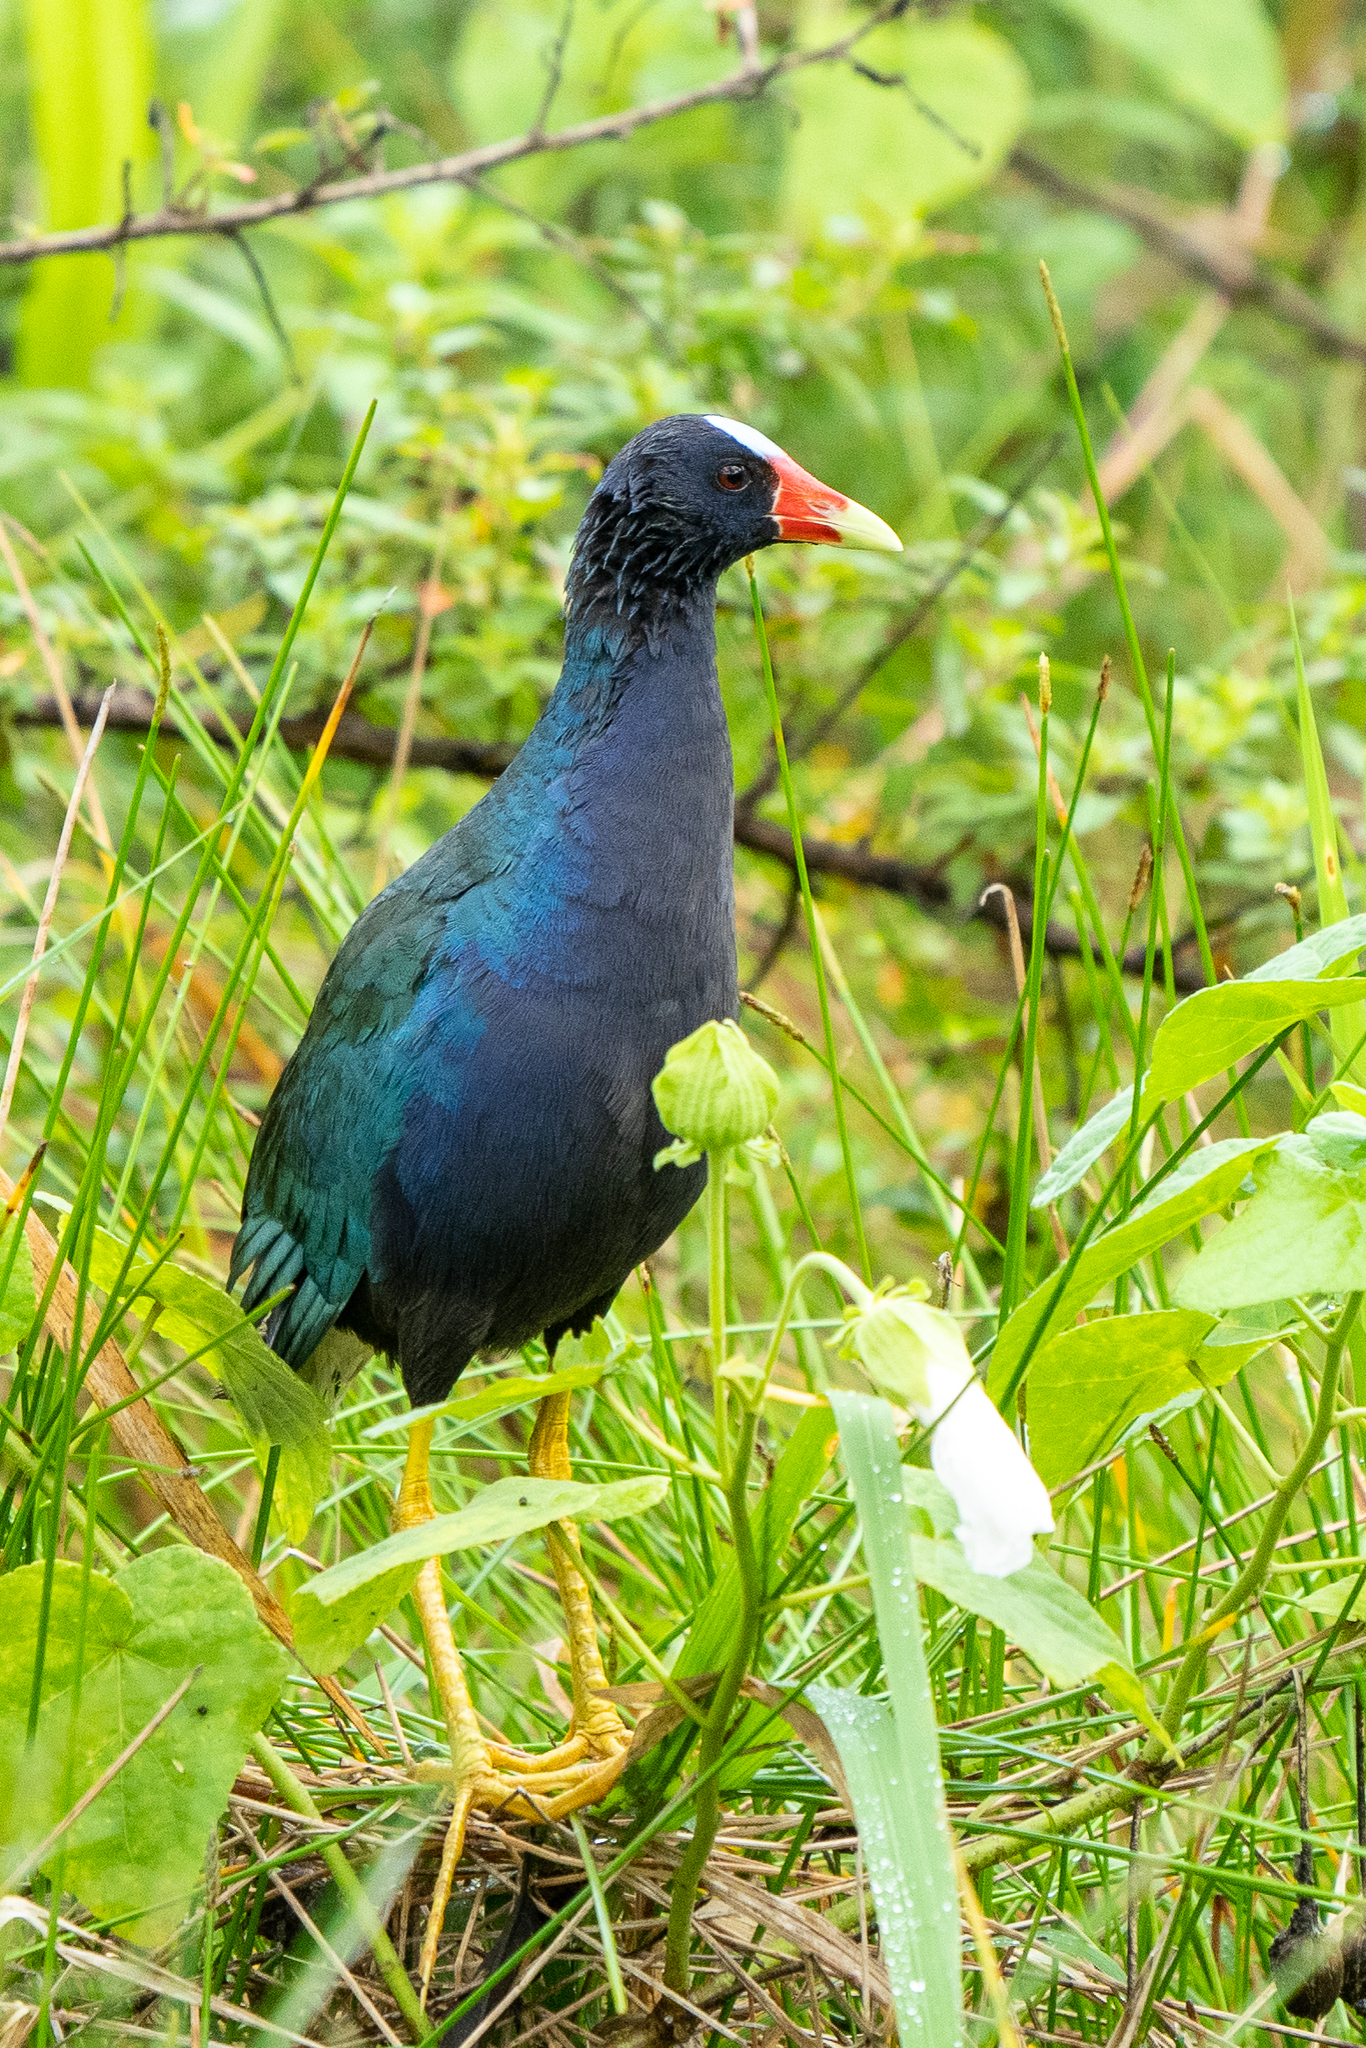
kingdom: Animalia
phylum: Chordata
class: Aves
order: Gruiformes
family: Rallidae
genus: Porphyrio
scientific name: Porphyrio martinica
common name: Purple gallinule
